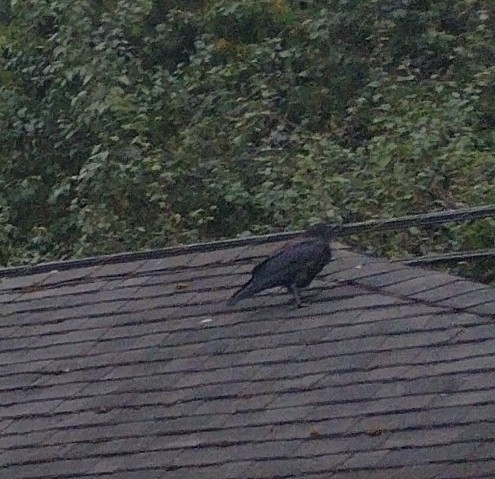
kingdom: Animalia
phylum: Chordata
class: Aves
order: Passeriformes
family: Corvidae
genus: Corvus
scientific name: Corvus brachyrhynchos
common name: American crow
